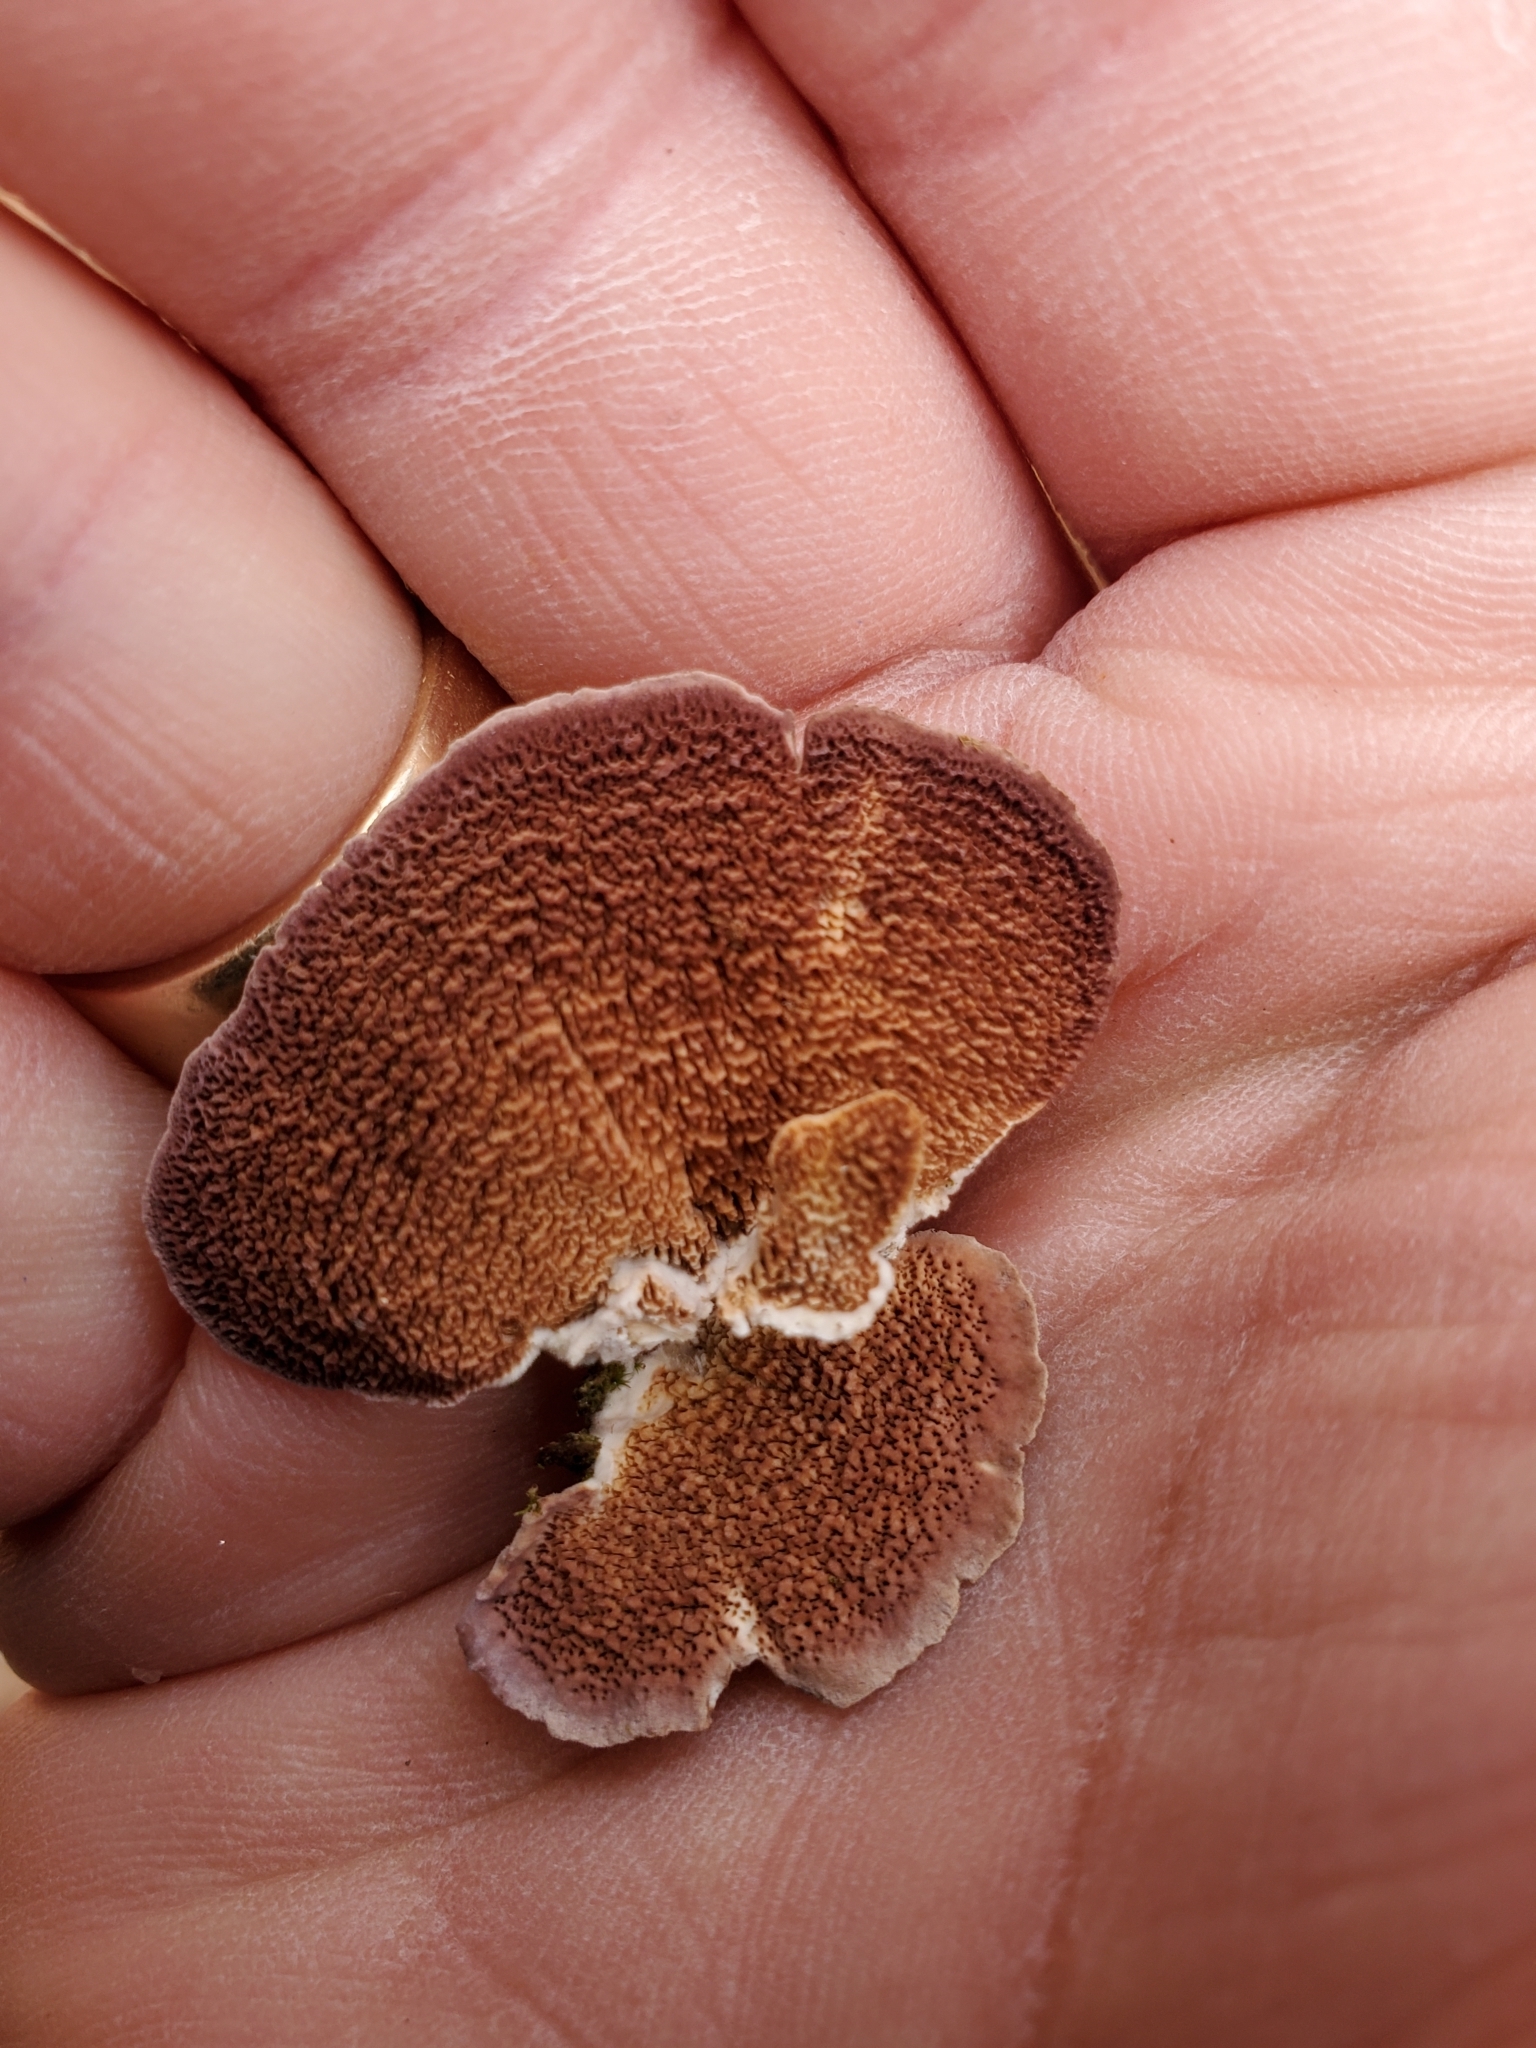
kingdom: Fungi
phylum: Basidiomycota
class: Agaricomycetes
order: Hymenochaetales
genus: Trichaptum
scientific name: Trichaptum biforme
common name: Violet-toothed polypore
